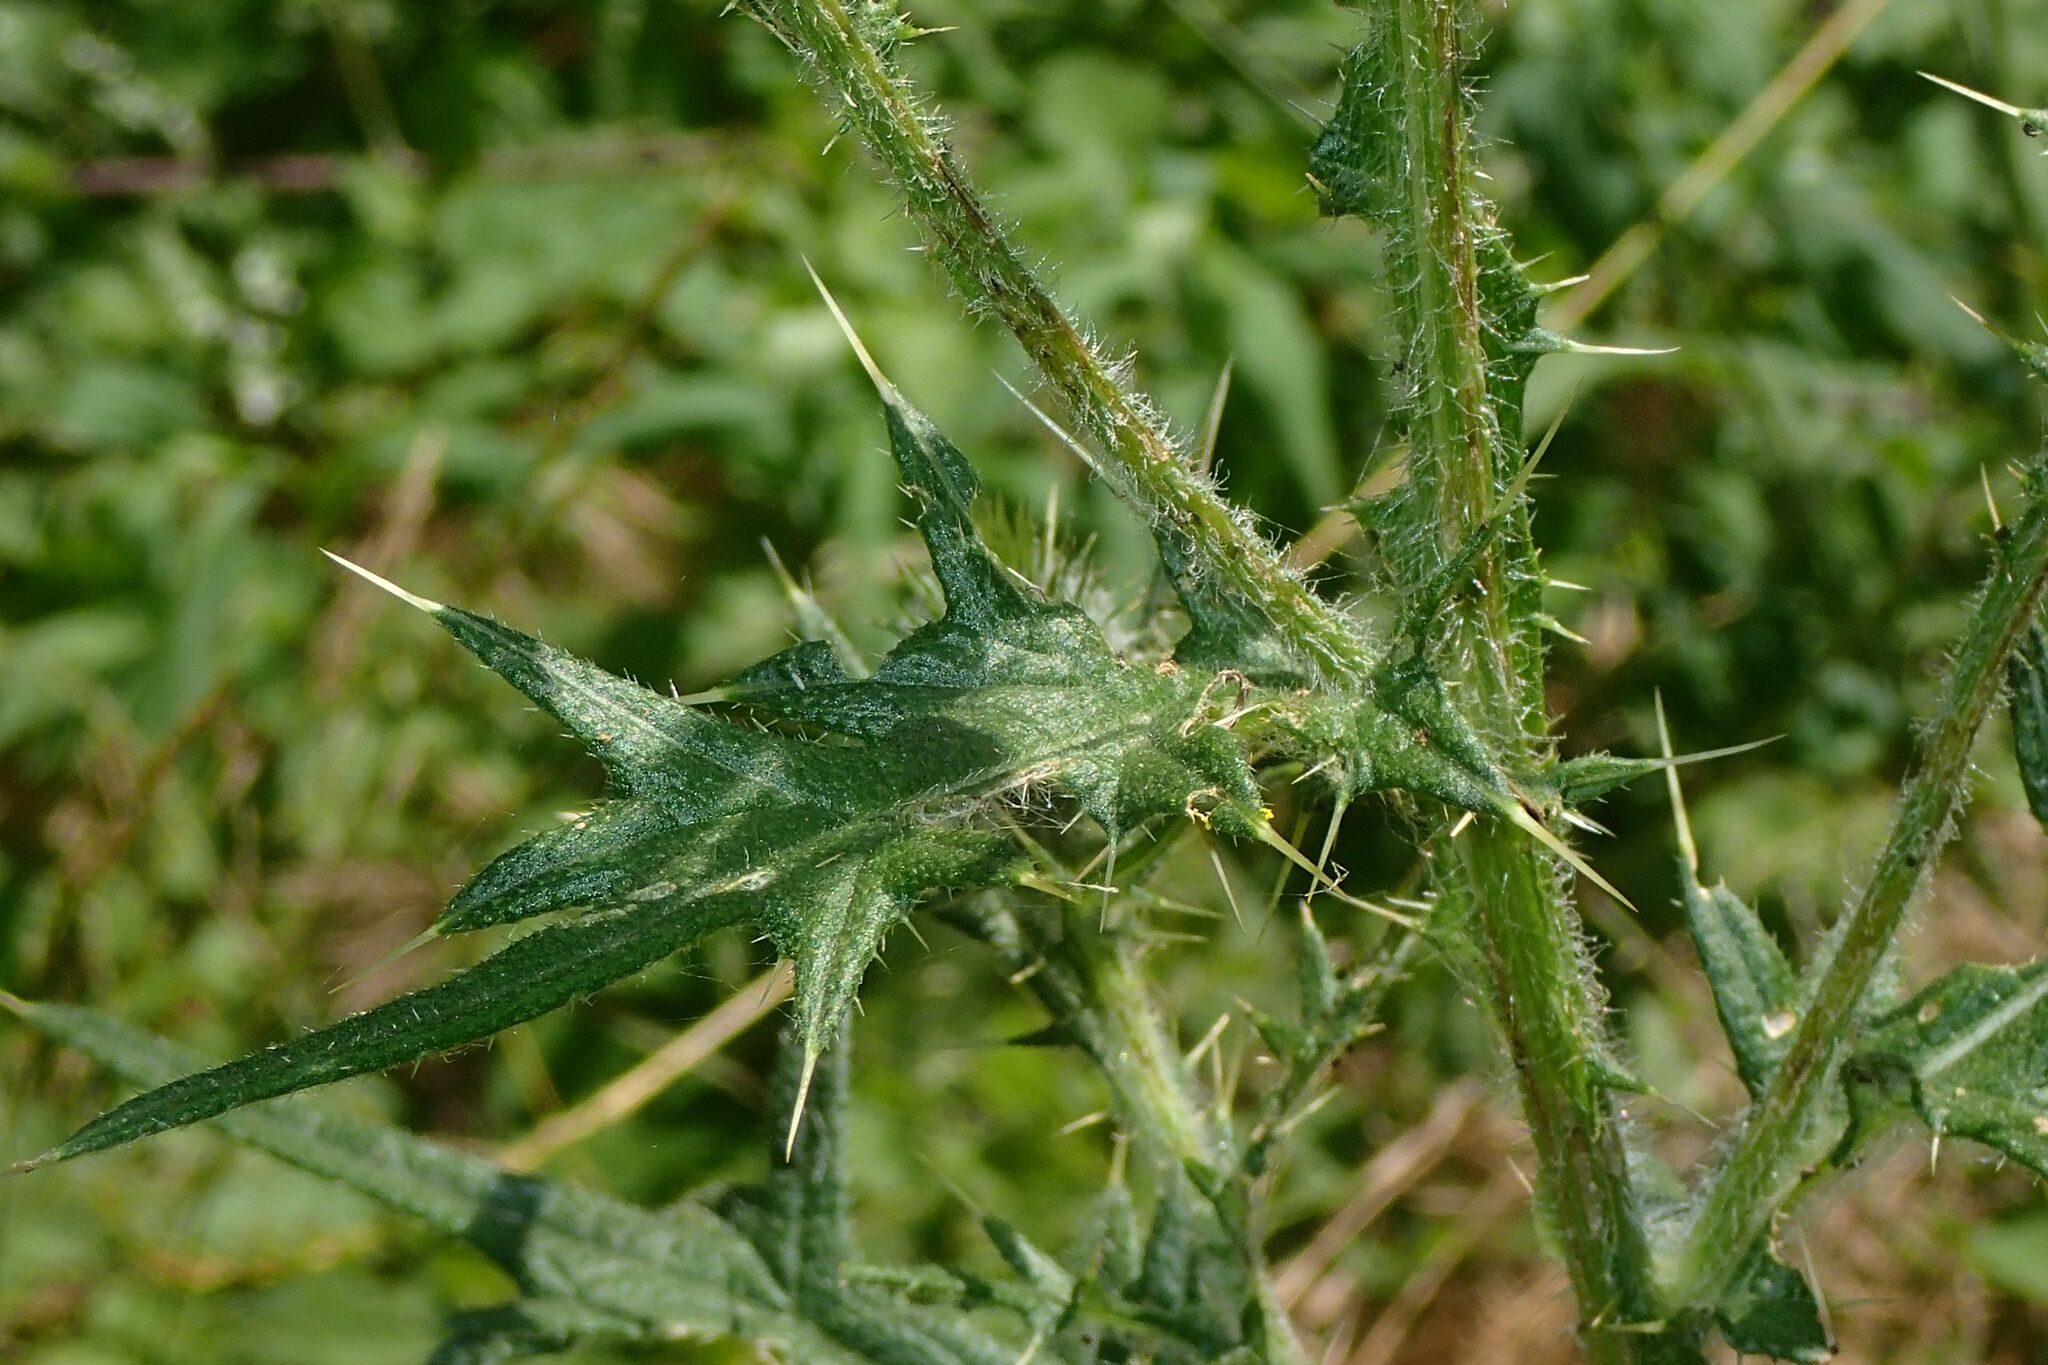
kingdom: Plantae
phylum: Tracheophyta
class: Magnoliopsida
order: Asterales
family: Asteraceae
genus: Cirsium
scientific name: Cirsium vulgare
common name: Bull thistle
